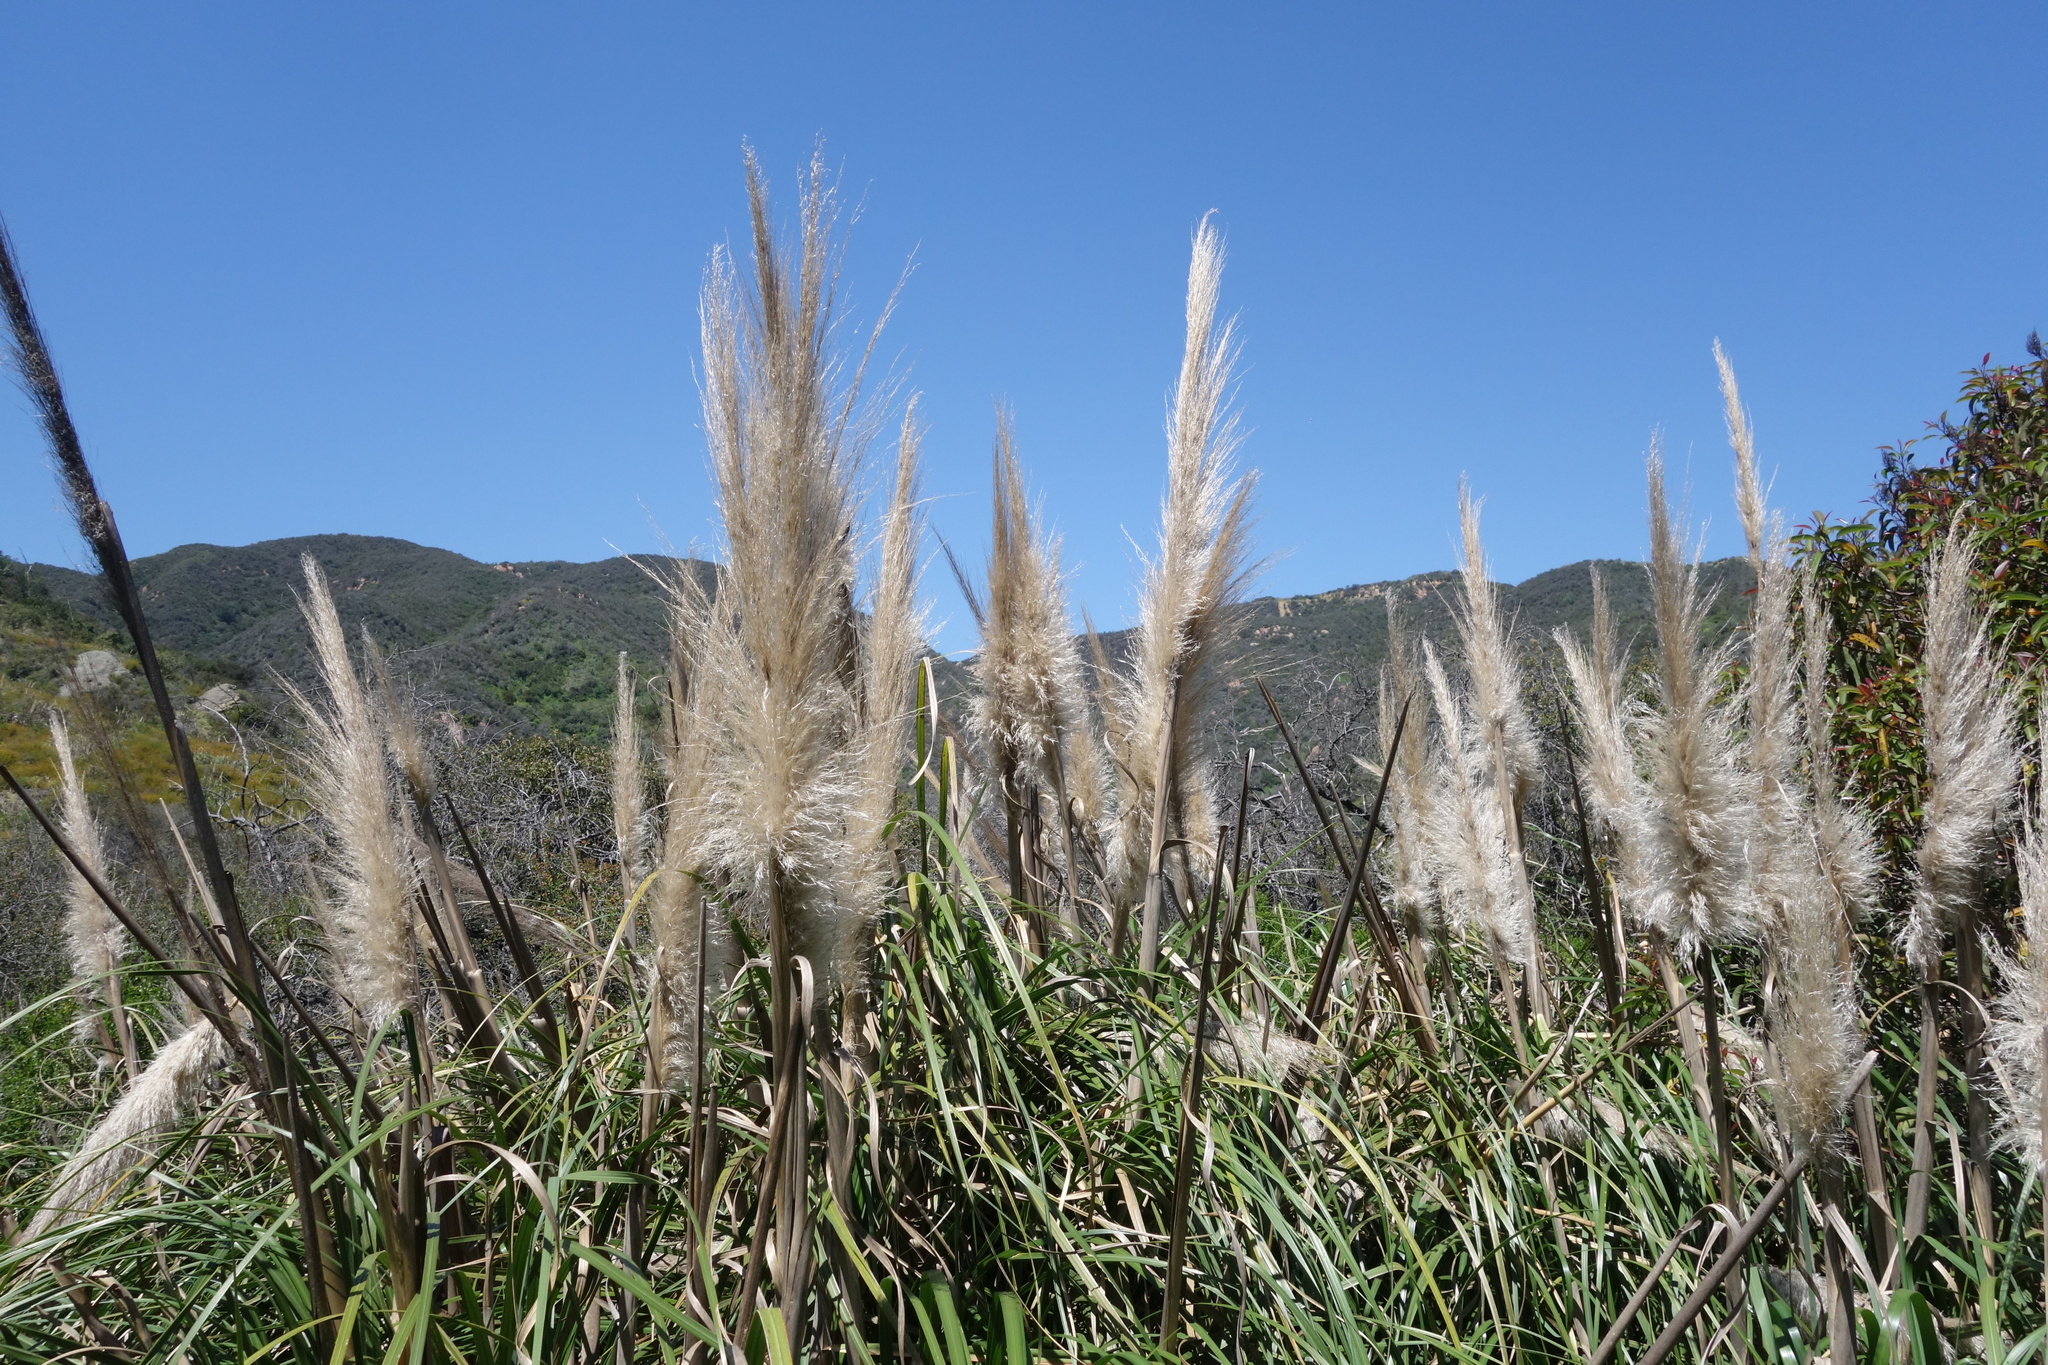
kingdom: Plantae
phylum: Tracheophyta
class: Liliopsida
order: Poales
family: Poaceae
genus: Cortaderia
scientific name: Cortaderia selloana
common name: Uruguayan pampas grass
